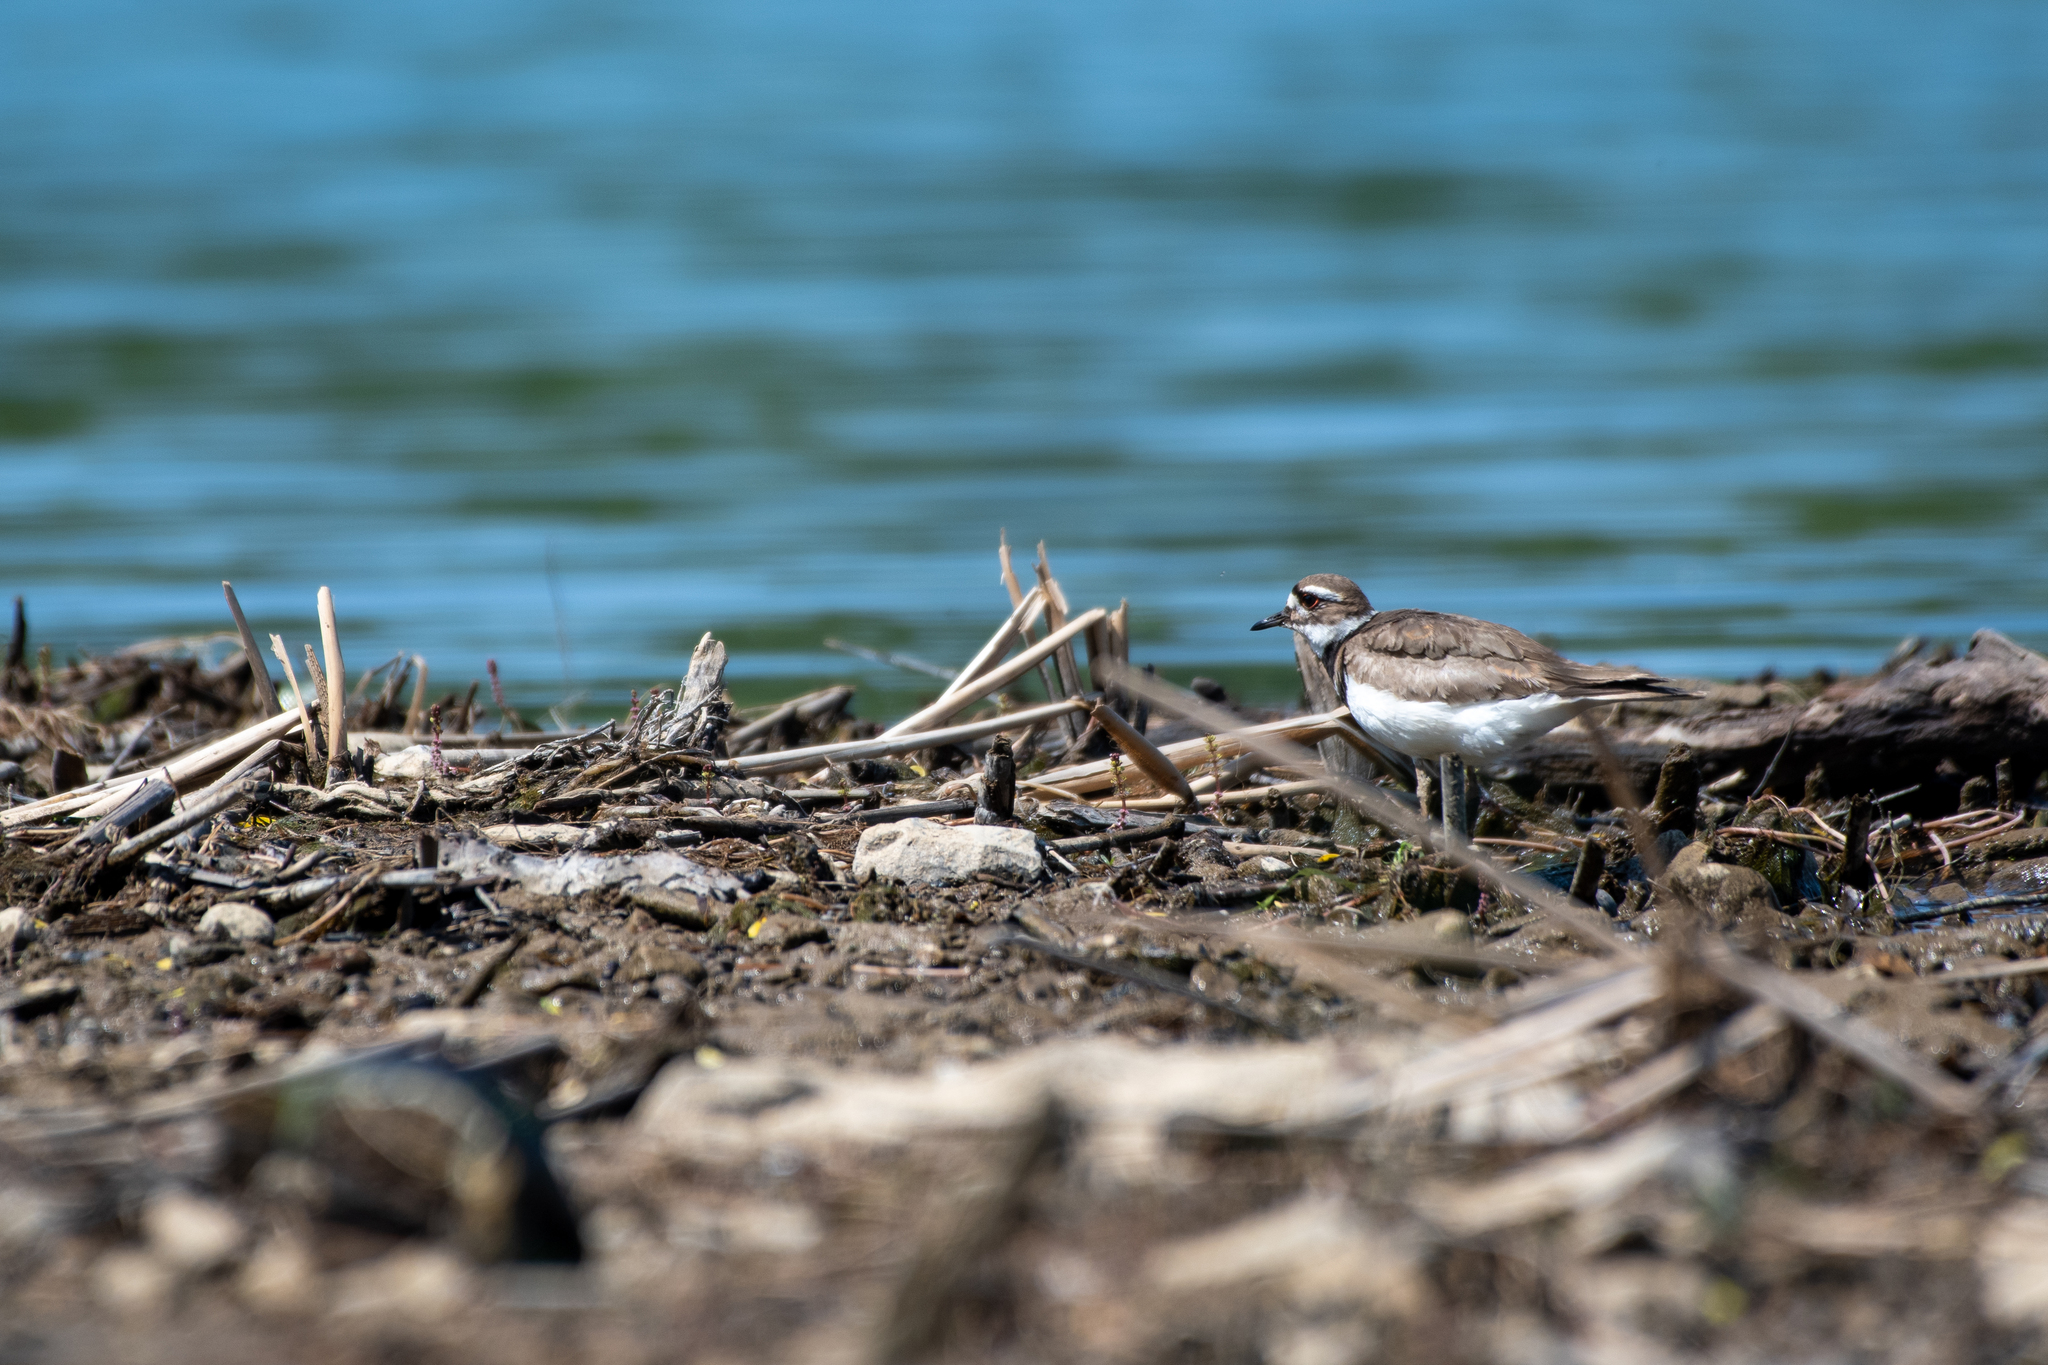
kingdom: Animalia
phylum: Chordata
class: Aves
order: Charadriiformes
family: Charadriidae
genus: Charadrius
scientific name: Charadrius vociferus
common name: Killdeer
